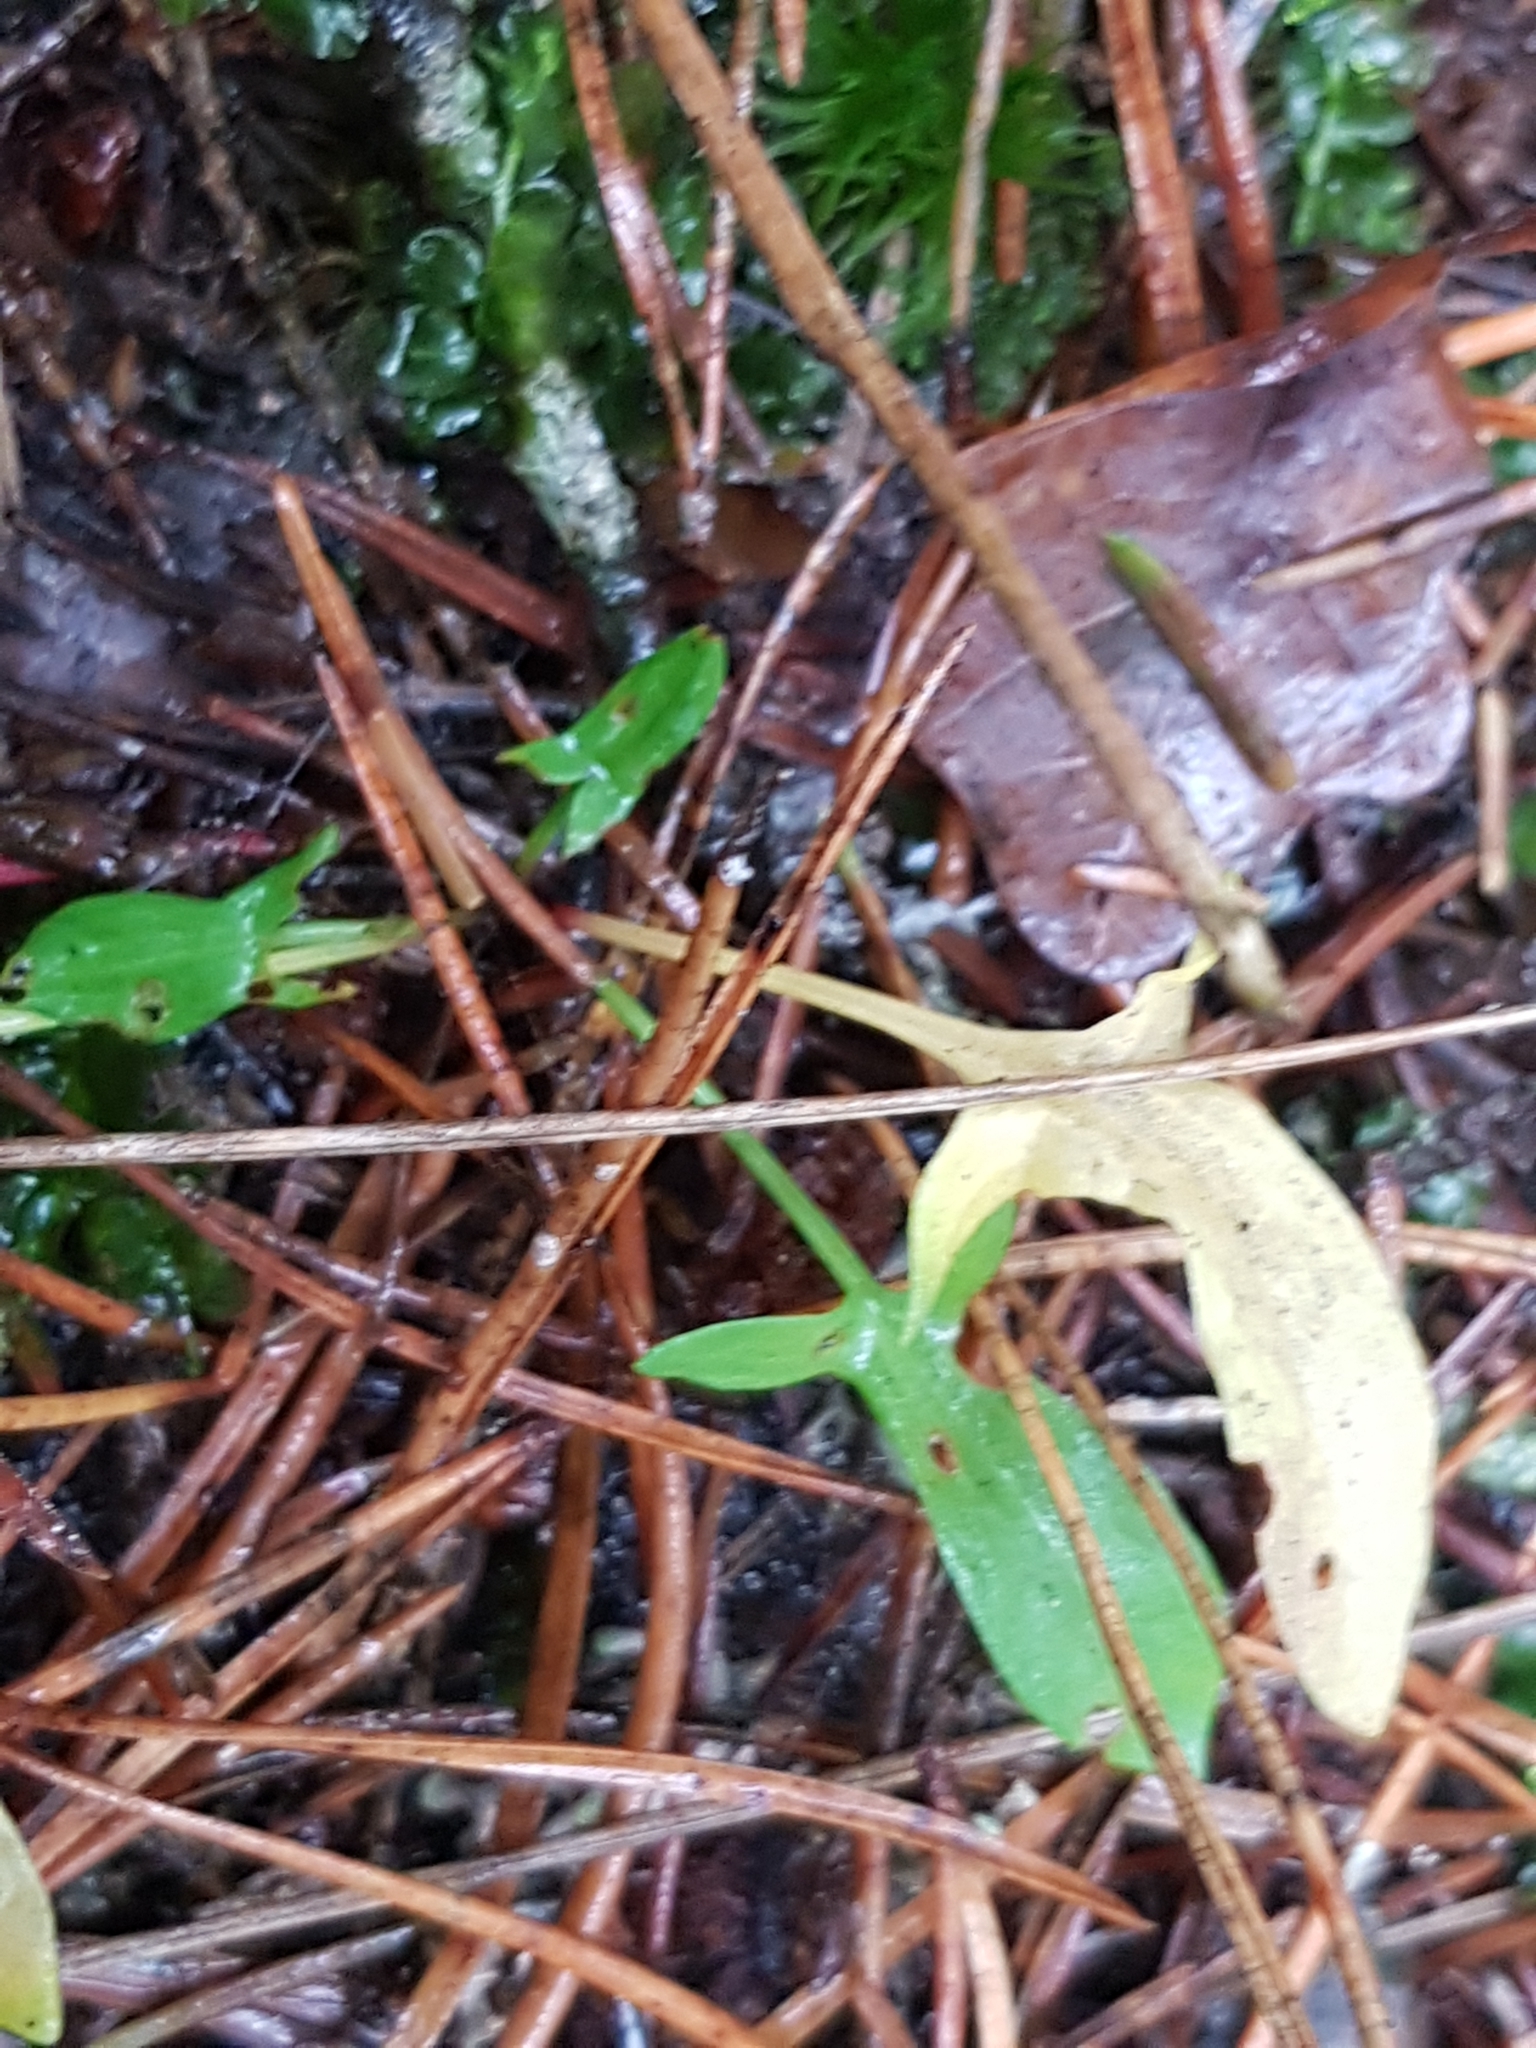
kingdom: Plantae
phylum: Tracheophyta
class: Magnoliopsida
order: Caryophyllales
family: Polygonaceae
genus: Rumex
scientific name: Rumex acetosella
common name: Common sheep sorrel
